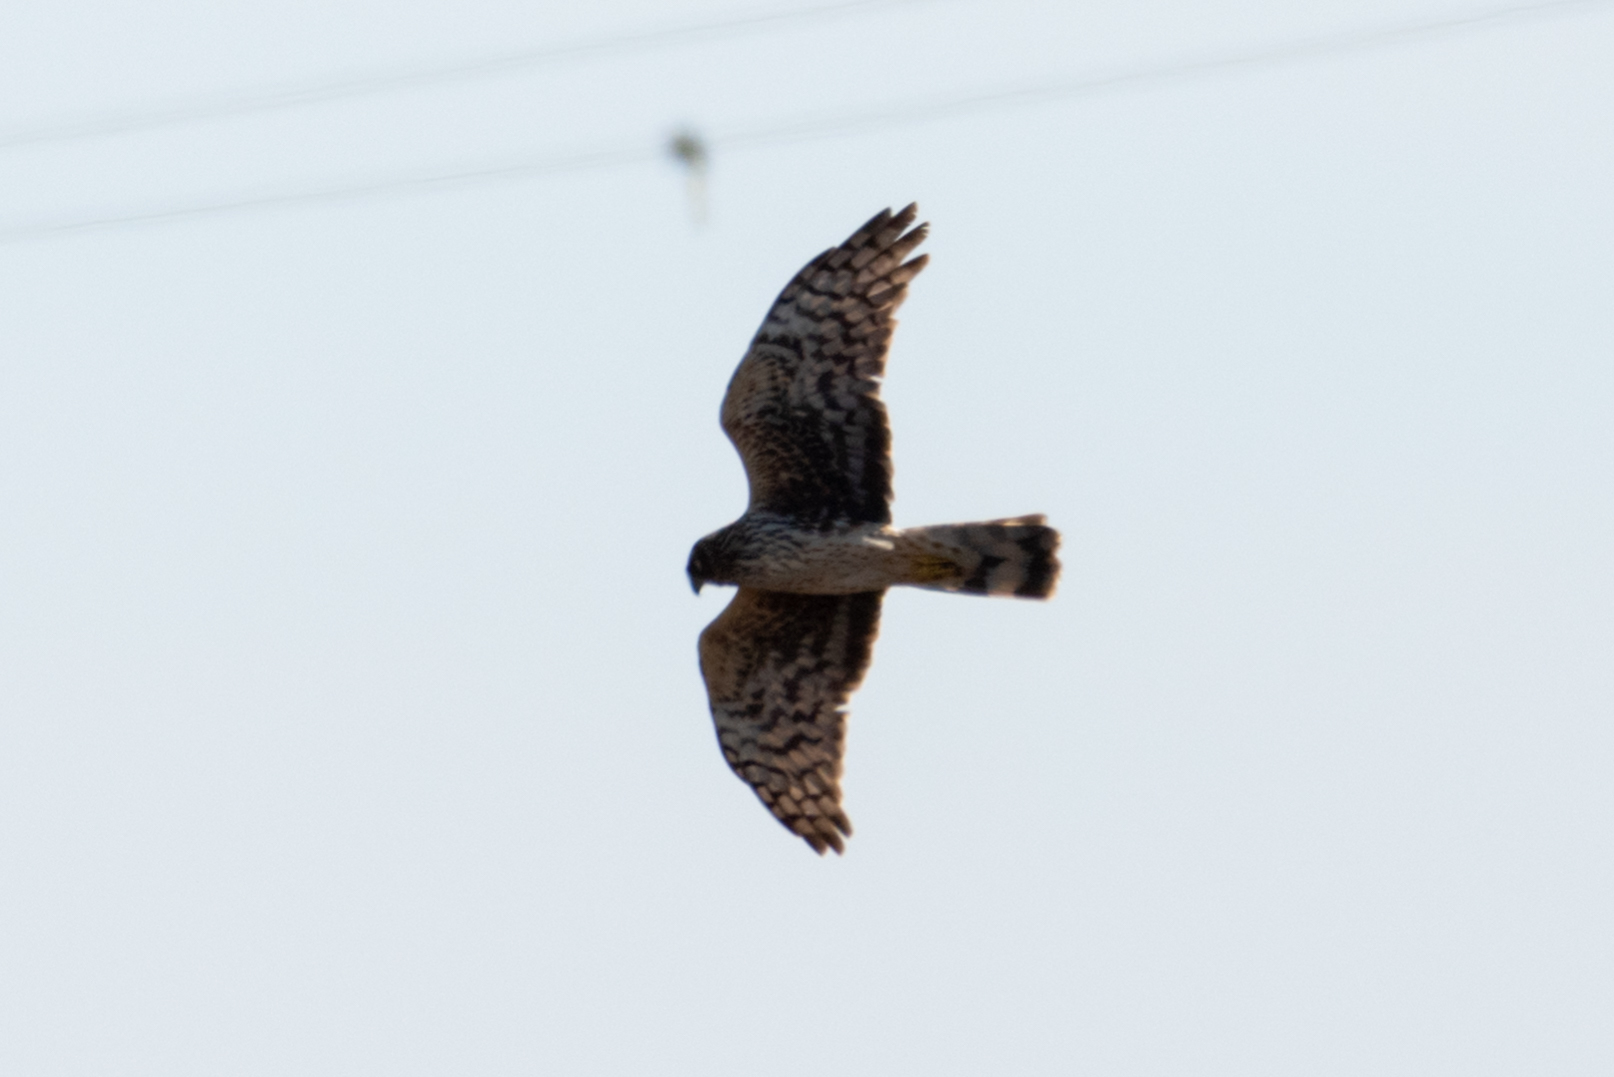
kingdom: Animalia
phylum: Chordata
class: Aves
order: Accipitriformes
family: Accipitridae
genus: Circus
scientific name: Circus cyaneus
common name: Hen harrier
